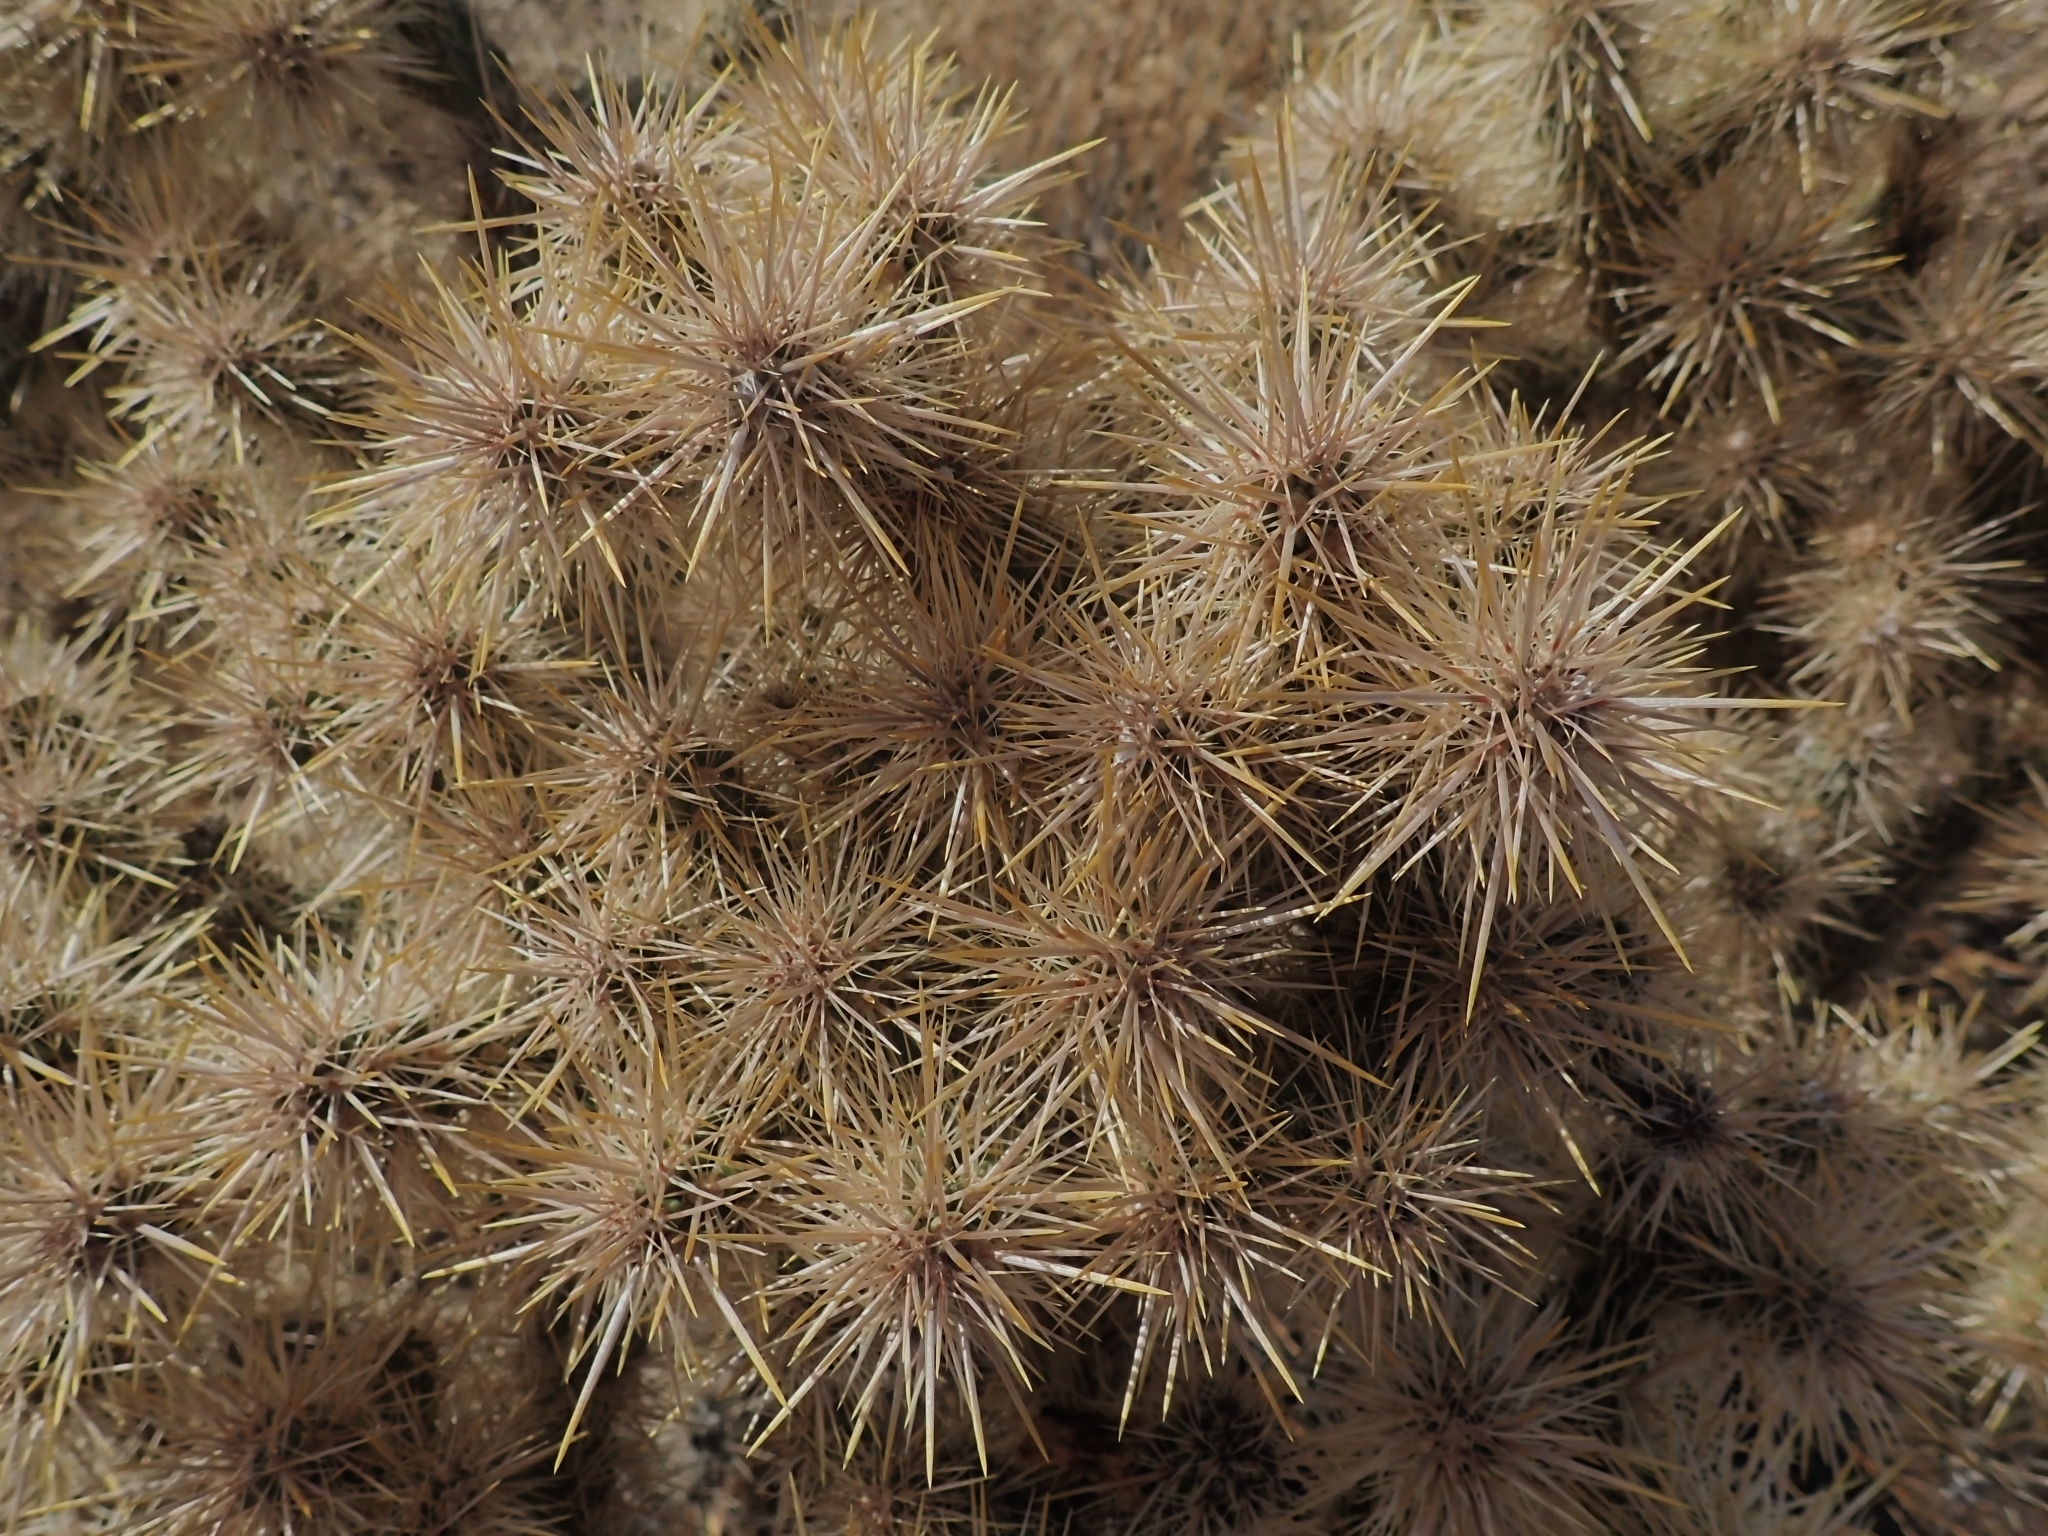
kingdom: Plantae
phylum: Tracheophyta
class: Magnoliopsida
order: Caryophyllales
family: Cactaceae
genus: Cylindropuntia
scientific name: Cylindropuntia echinocarpa
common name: Ground cholla
